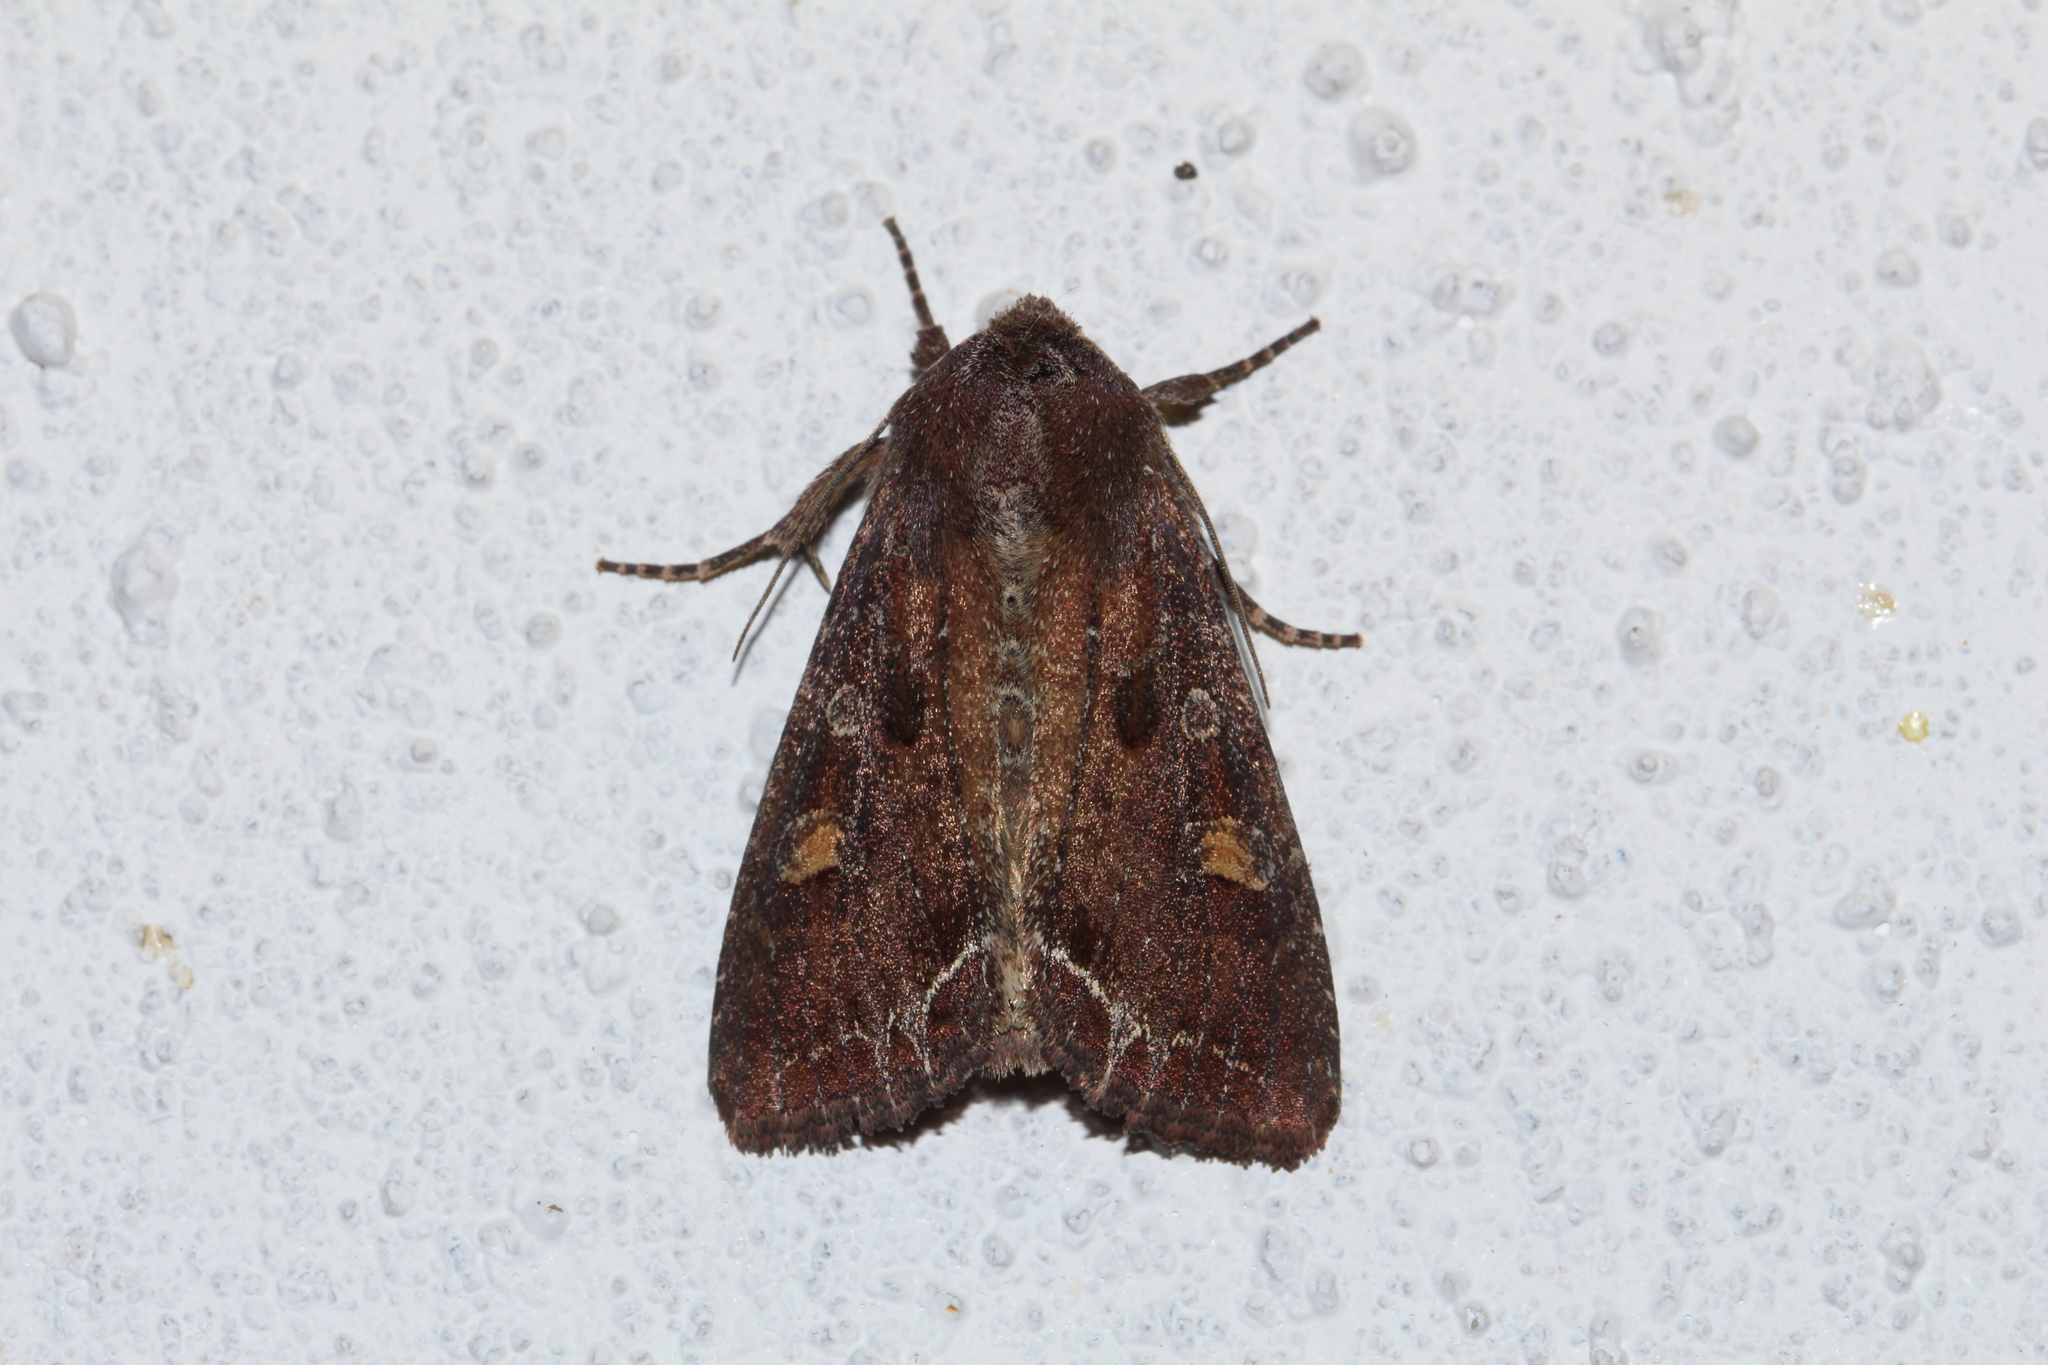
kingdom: Animalia
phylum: Arthropoda
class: Insecta
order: Lepidoptera
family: Noctuidae
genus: Lacanobia
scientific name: Lacanobia oleracea
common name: Bright-line brown-eye
